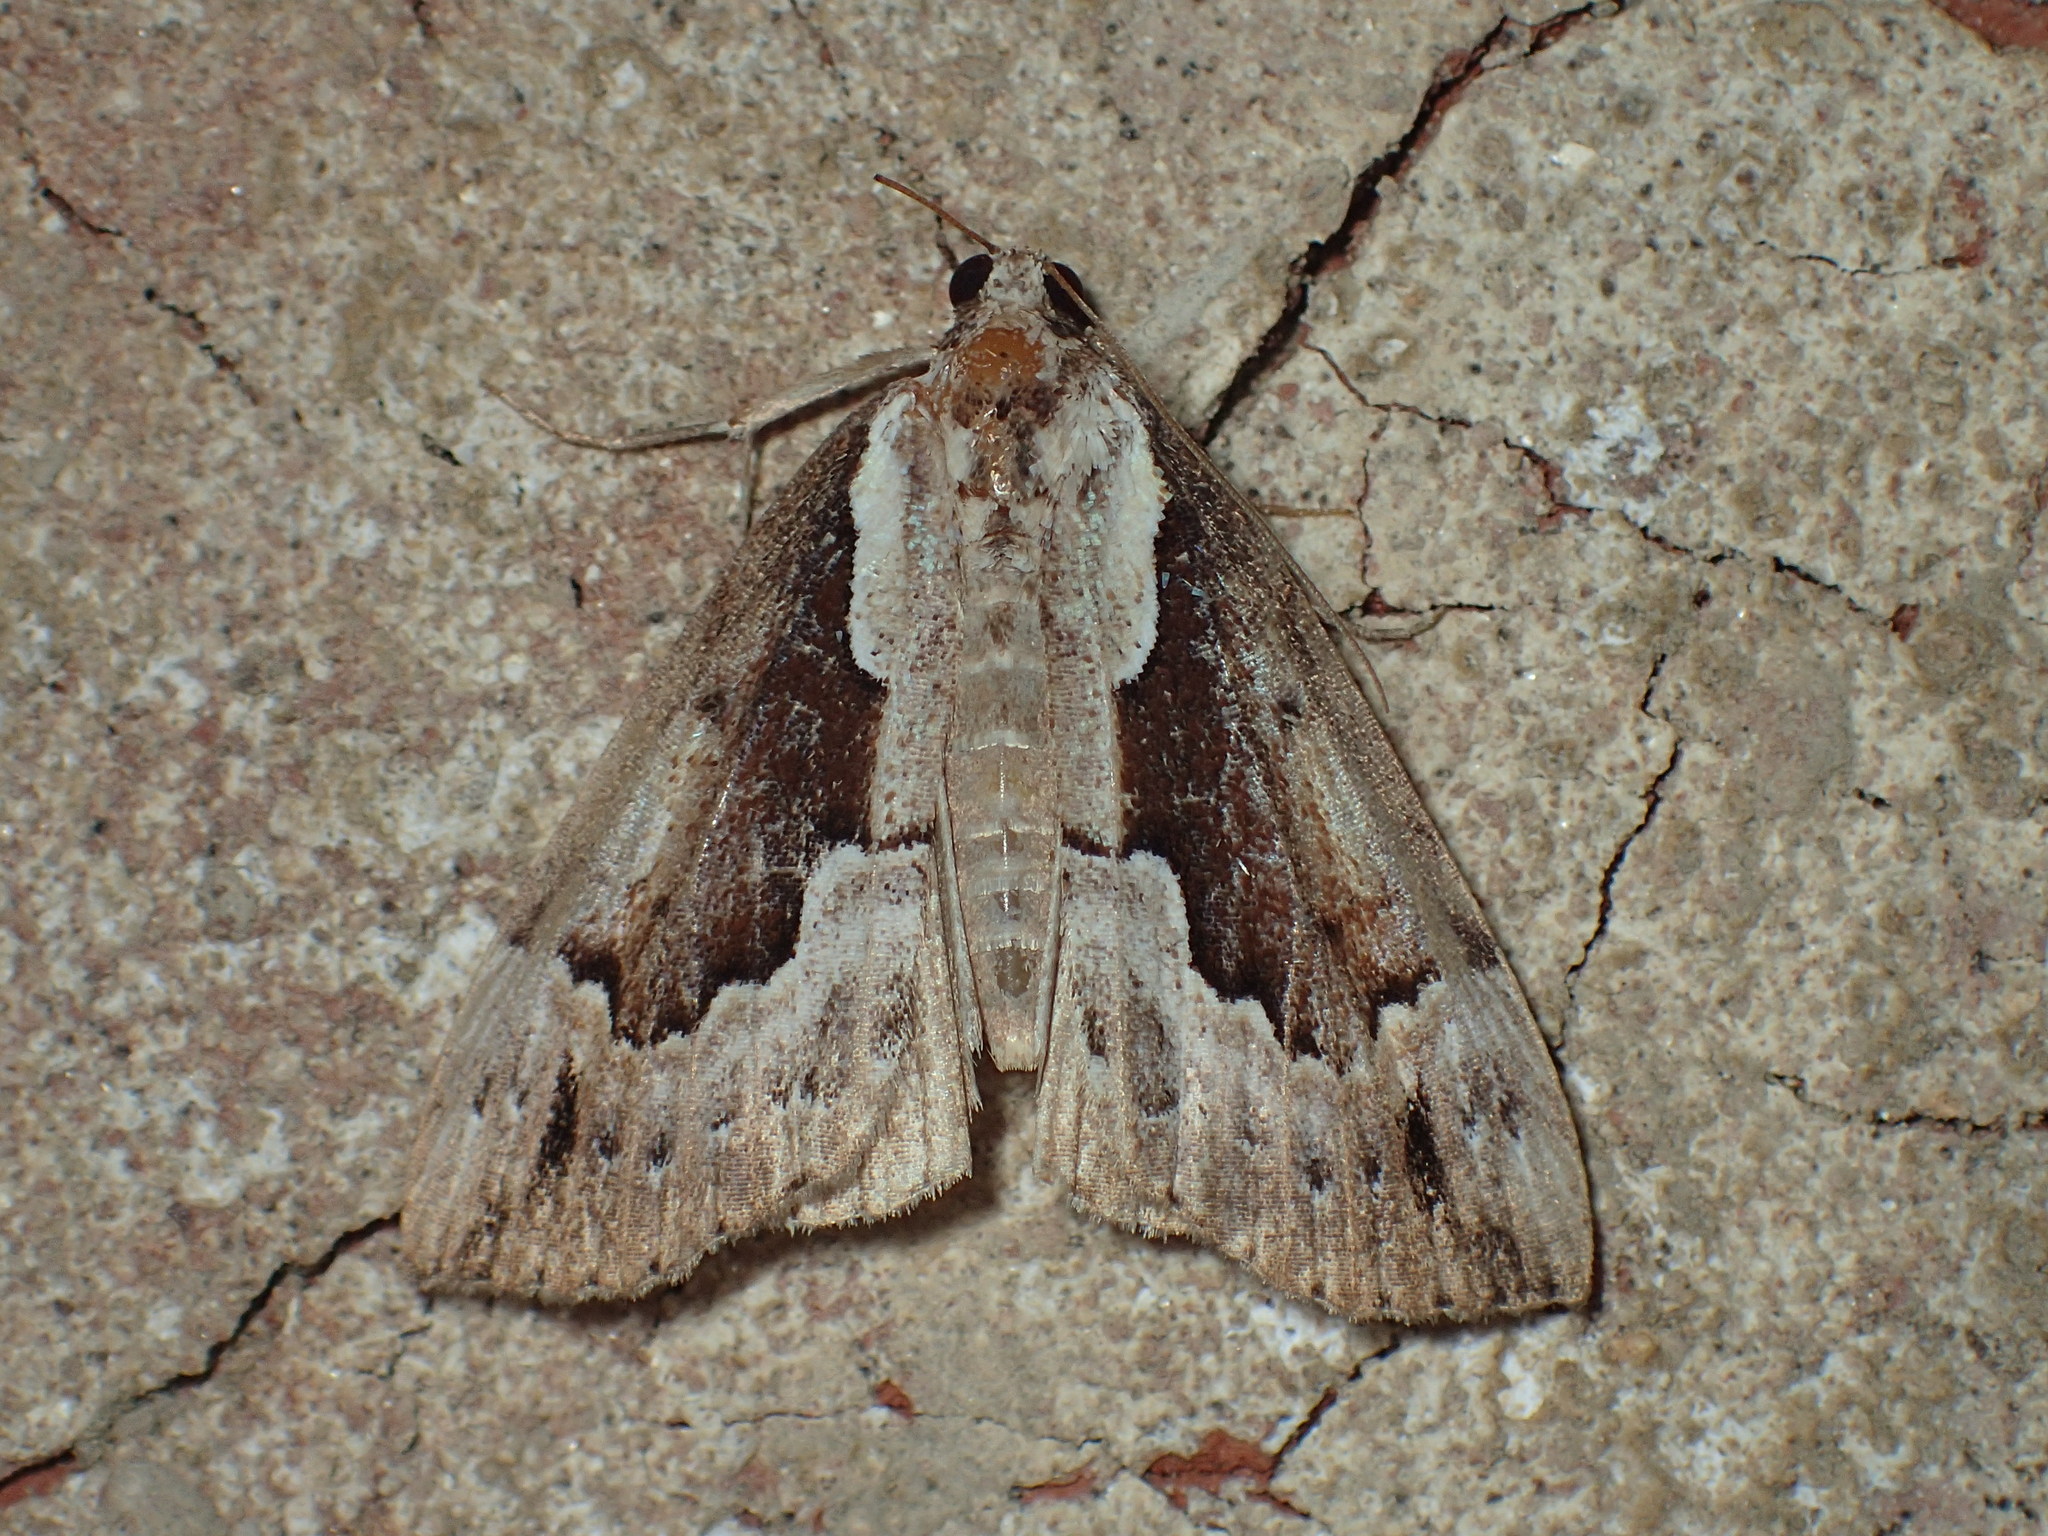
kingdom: Animalia
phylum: Arthropoda
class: Insecta
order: Lepidoptera
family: Erebidae
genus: Hypena
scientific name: Hypena baltimoralis
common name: Baltimore snout
